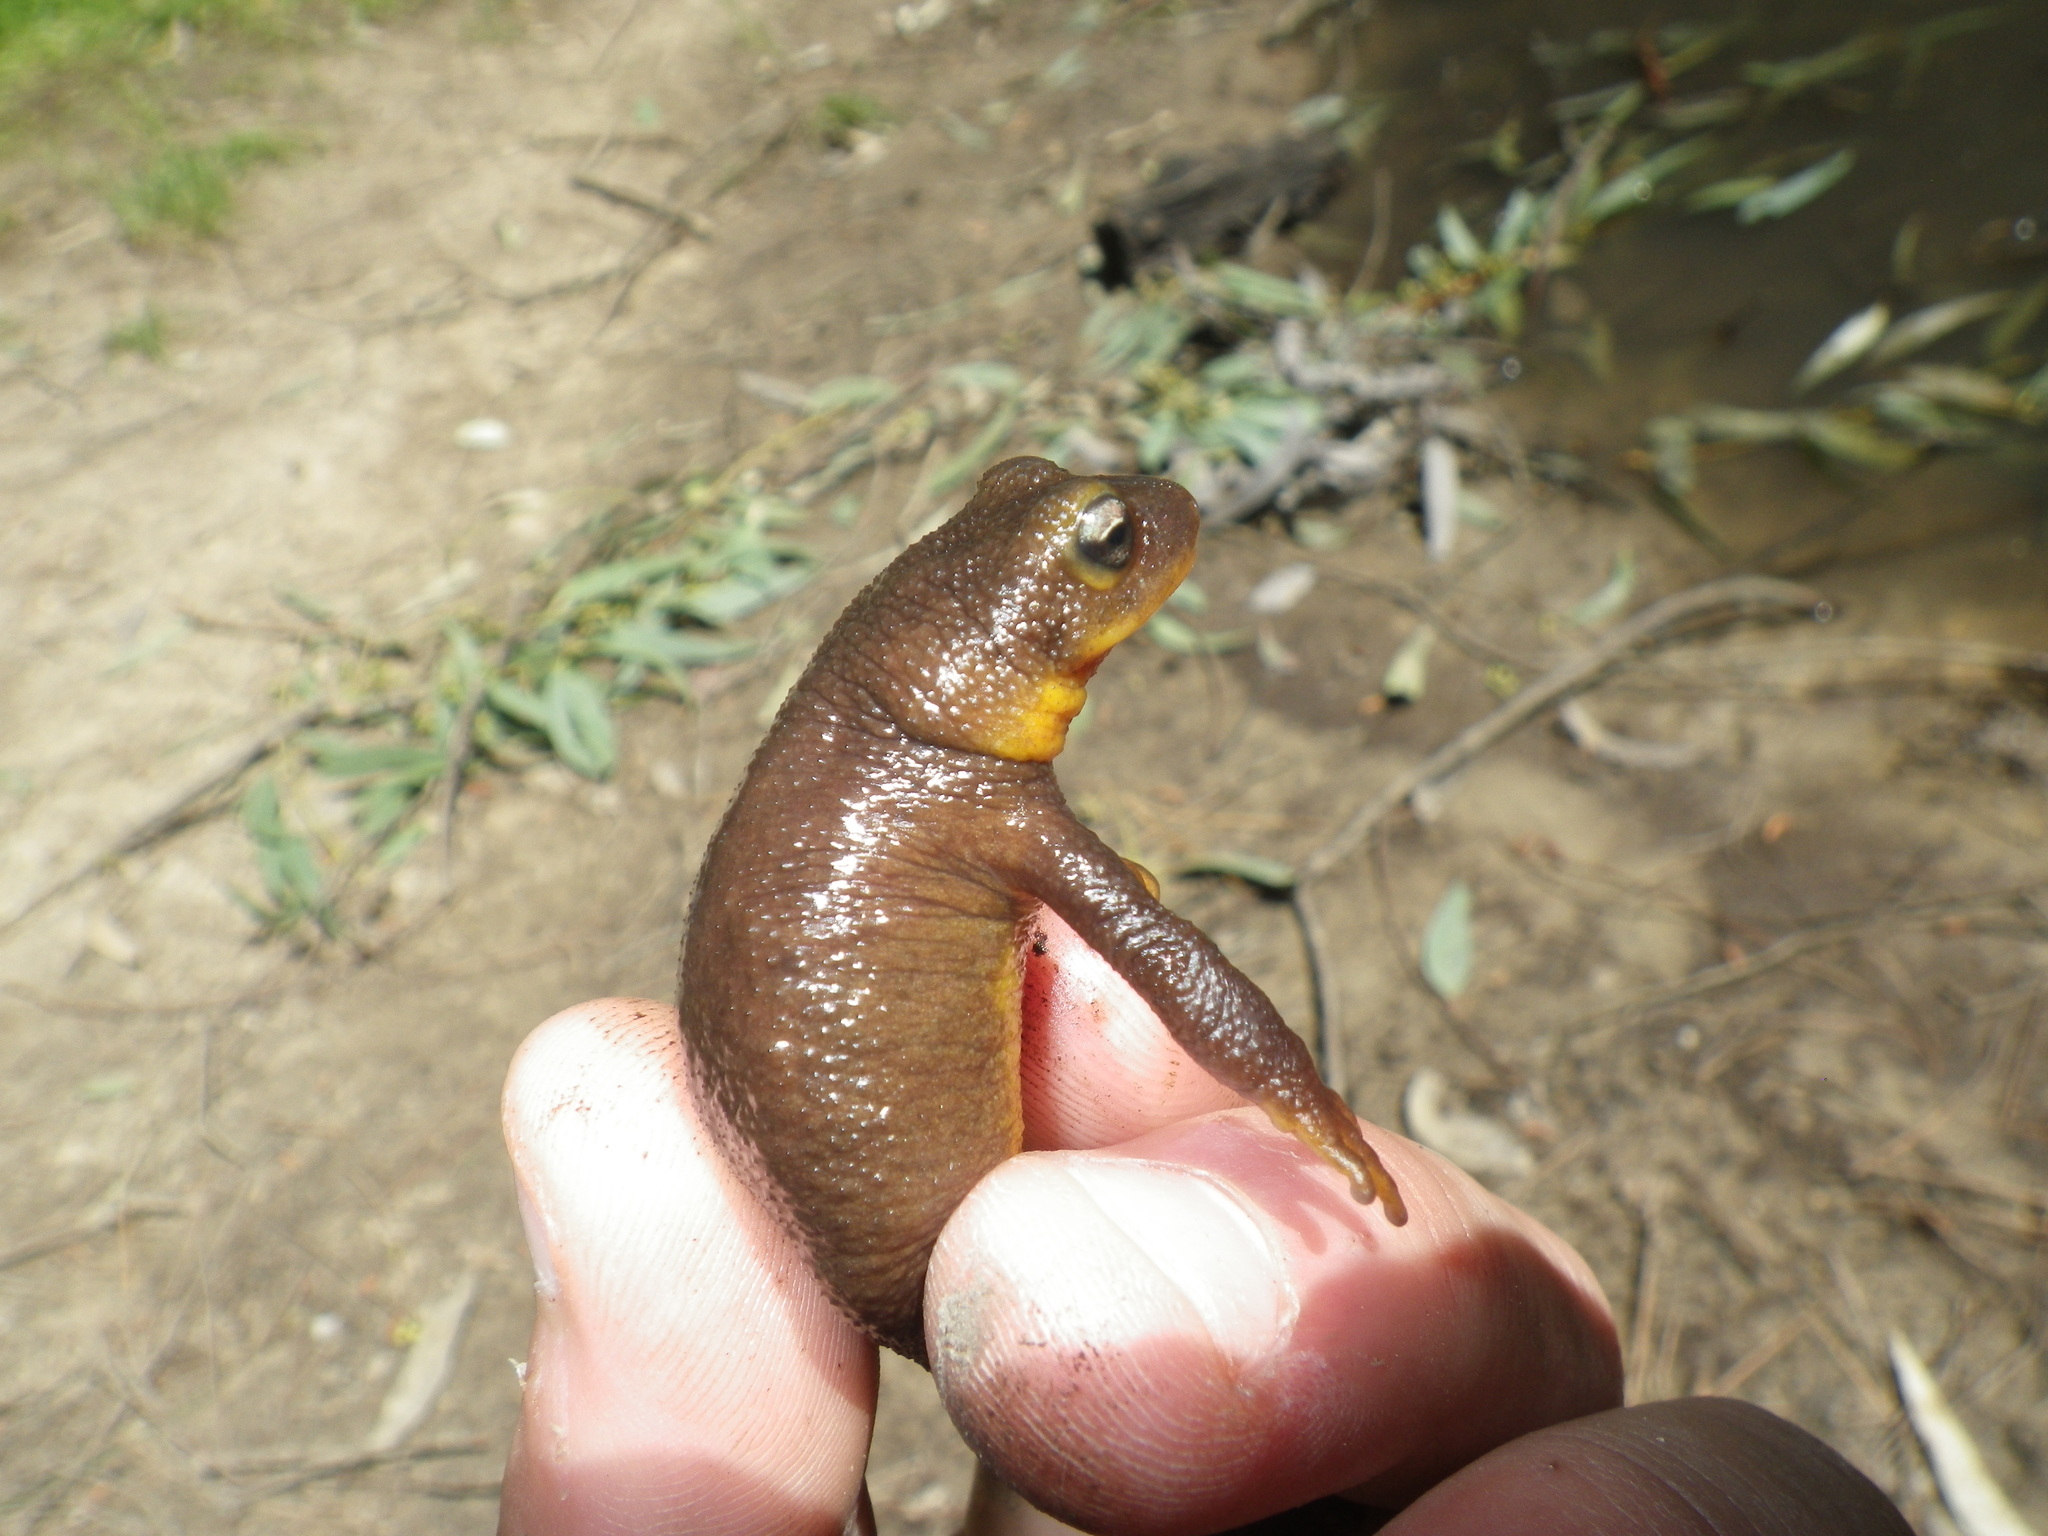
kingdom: Animalia
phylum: Chordata
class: Amphibia
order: Caudata
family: Salamandridae
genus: Taricha
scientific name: Taricha torosa
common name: California newt
